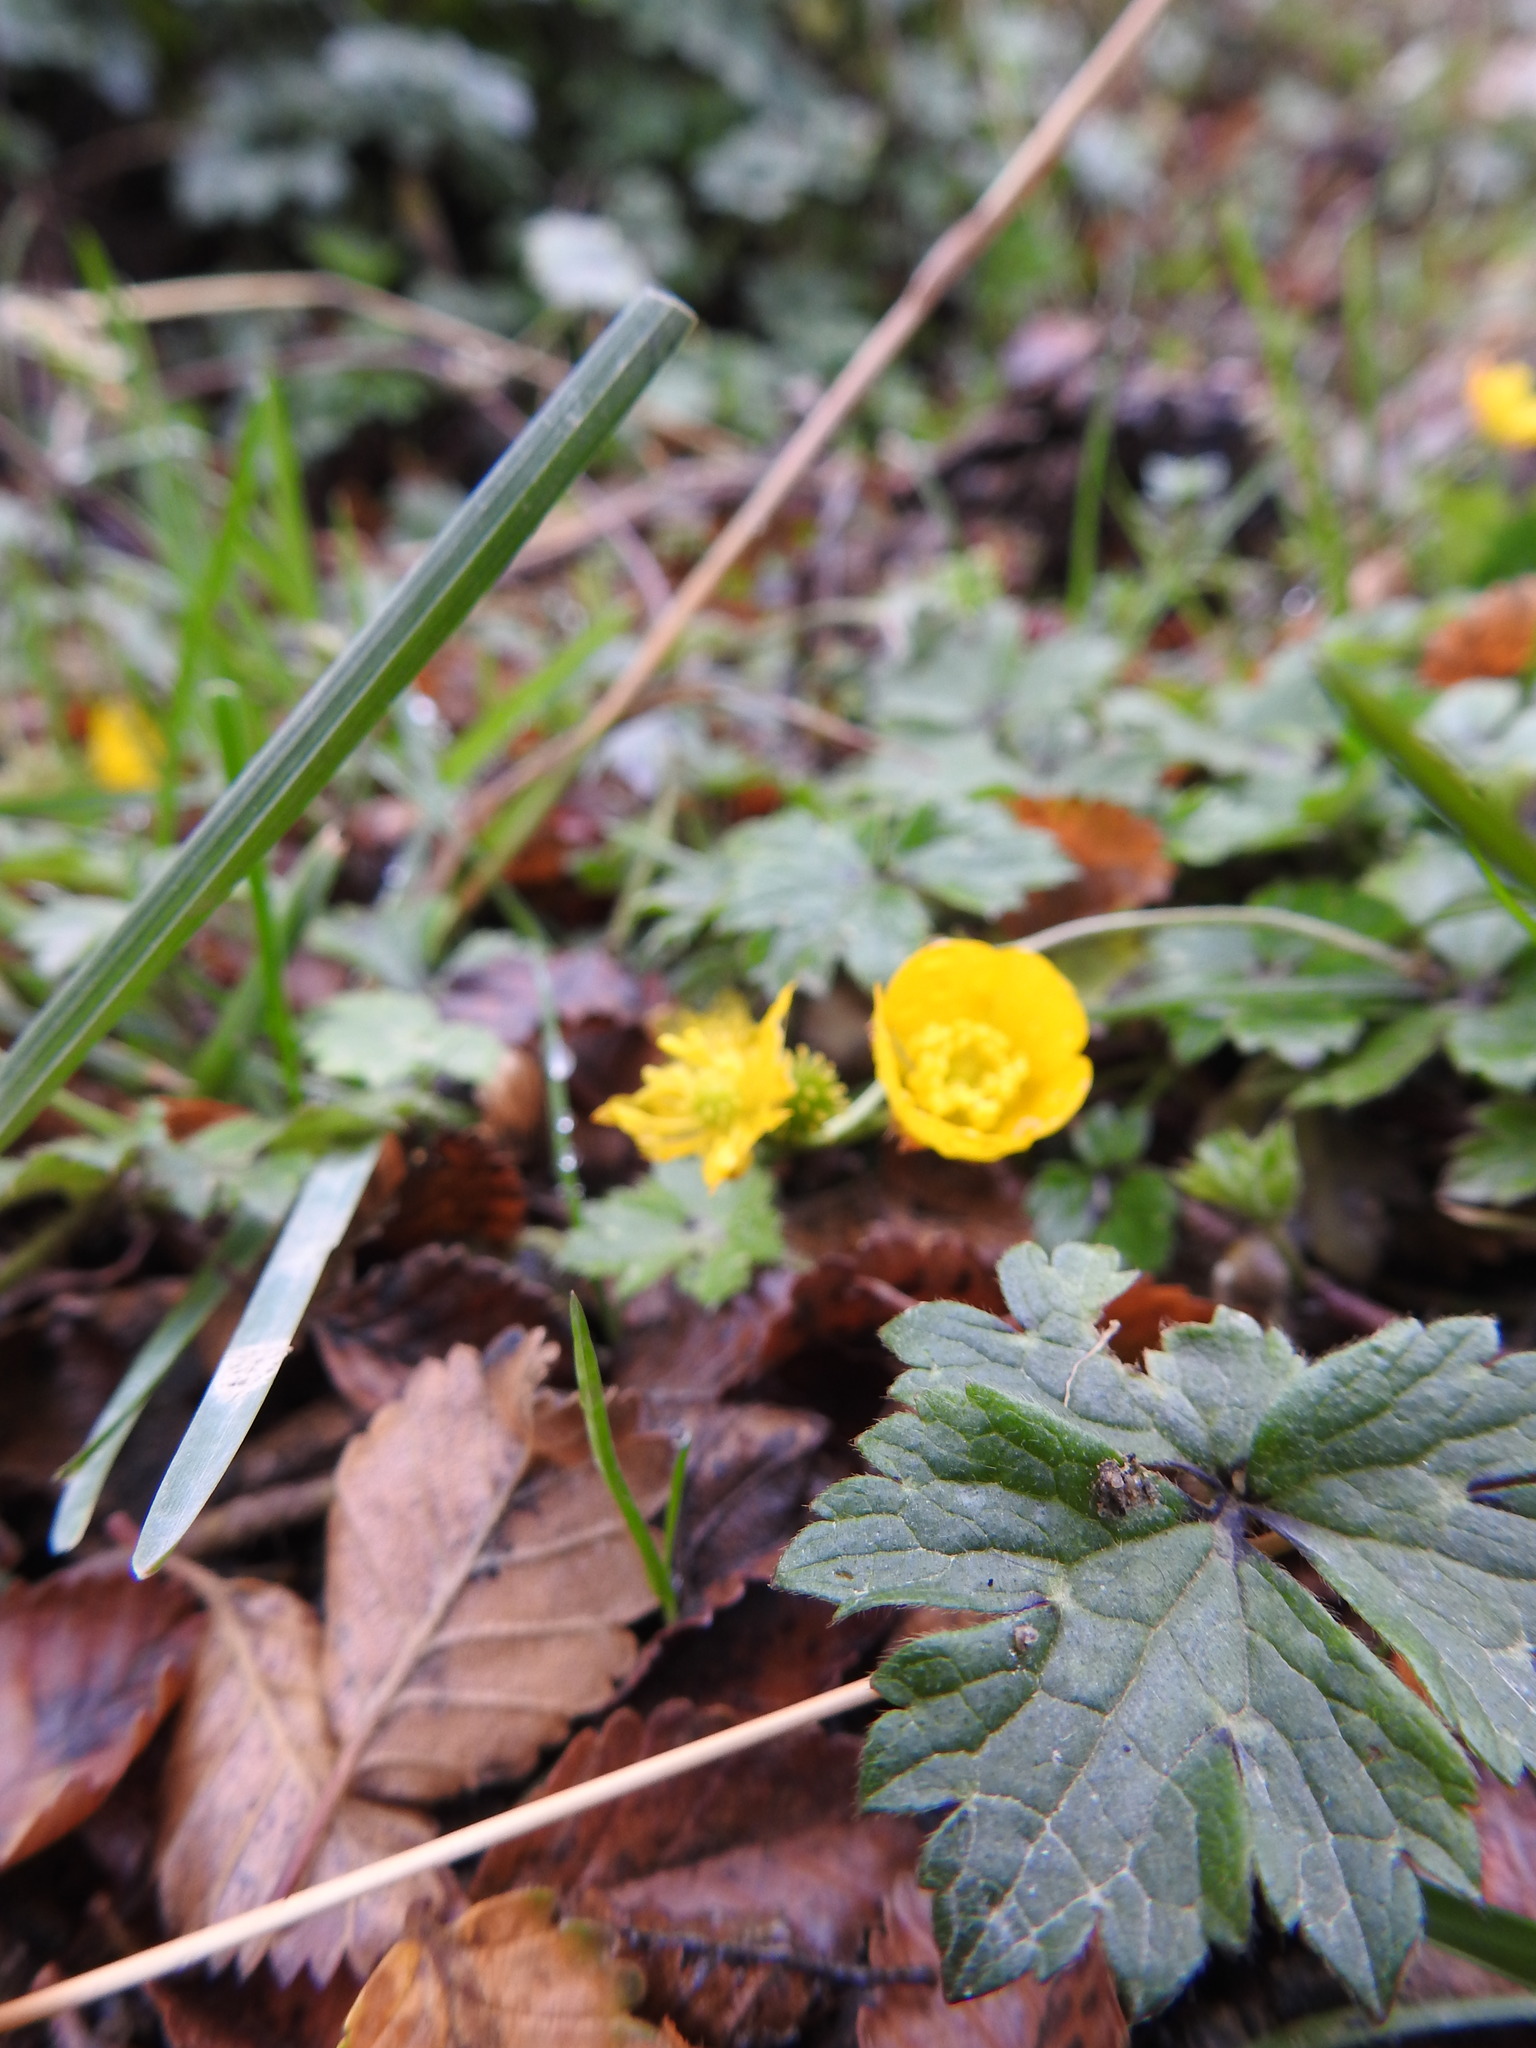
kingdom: Plantae
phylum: Tracheophyta
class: Magnoliopsida
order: Ranunculales
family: Ranunculaceae
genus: Ranunculus
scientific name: Ranunculus repens
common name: Creeping buttercup
